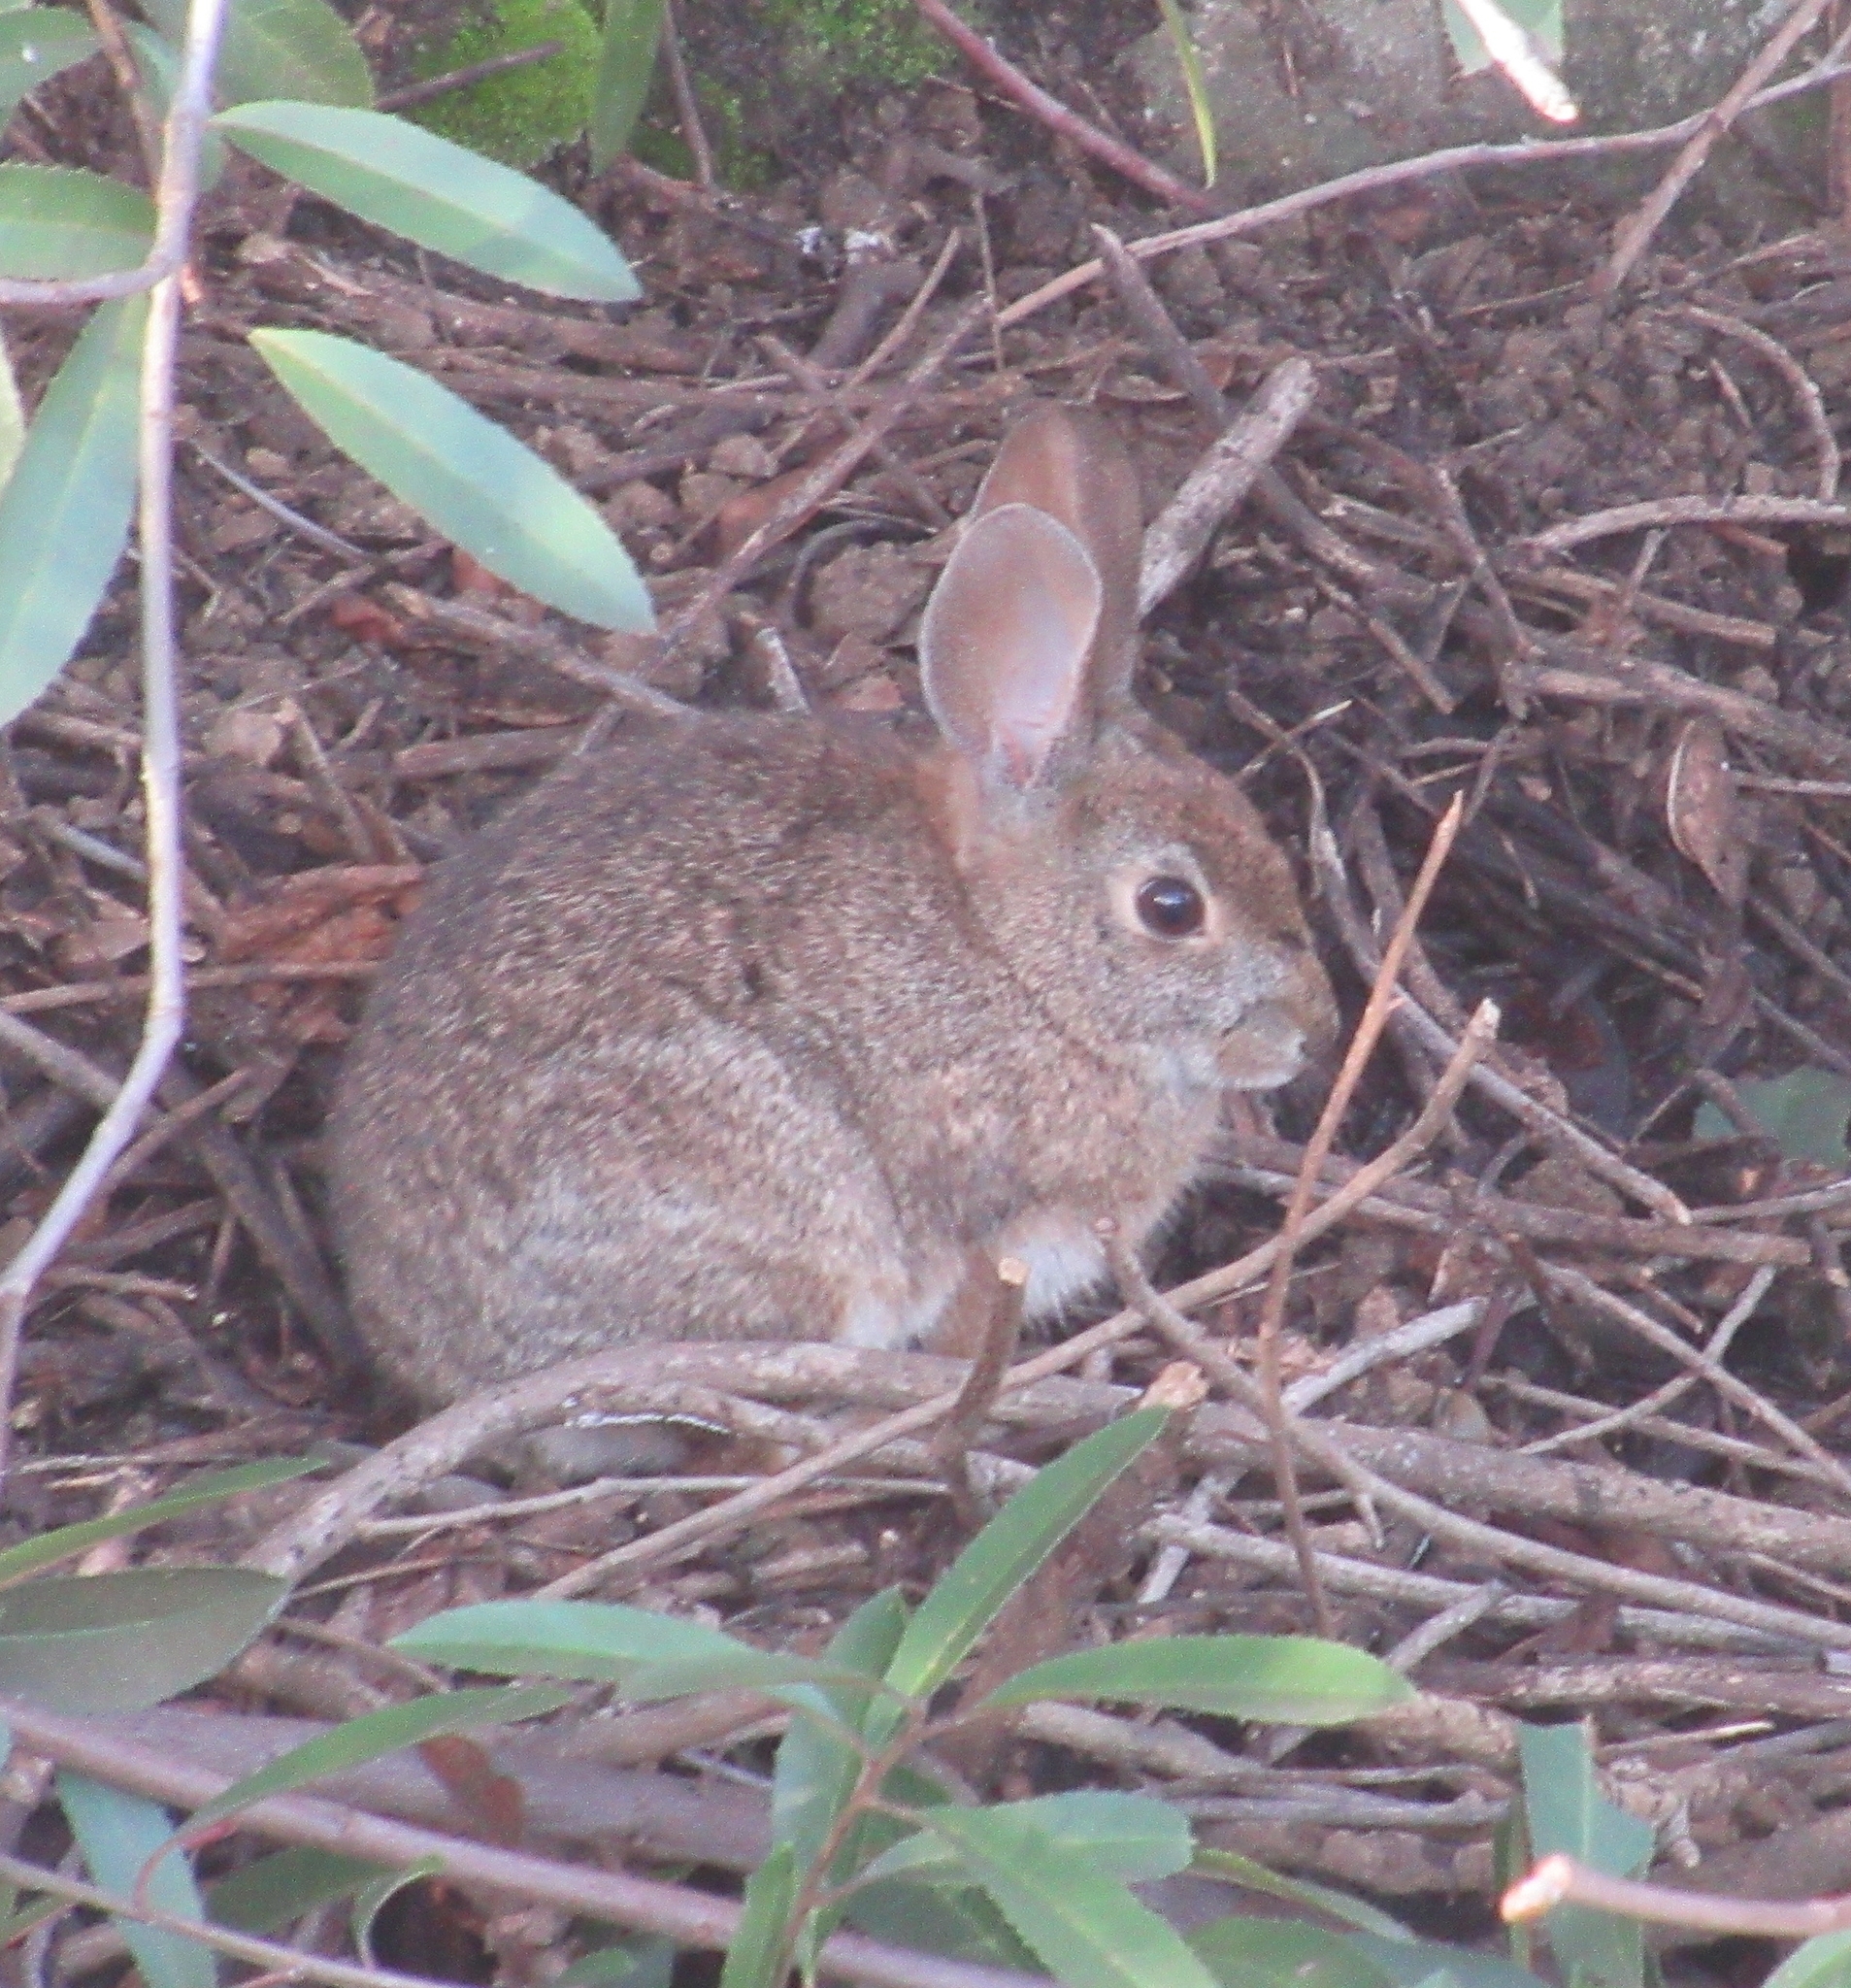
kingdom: Animalia
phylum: Chordata
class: Mammalia
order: Lagomorpha
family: Leporidae
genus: Sylvilagus
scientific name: Sylvilagus bachmani
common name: Brush rabbit
